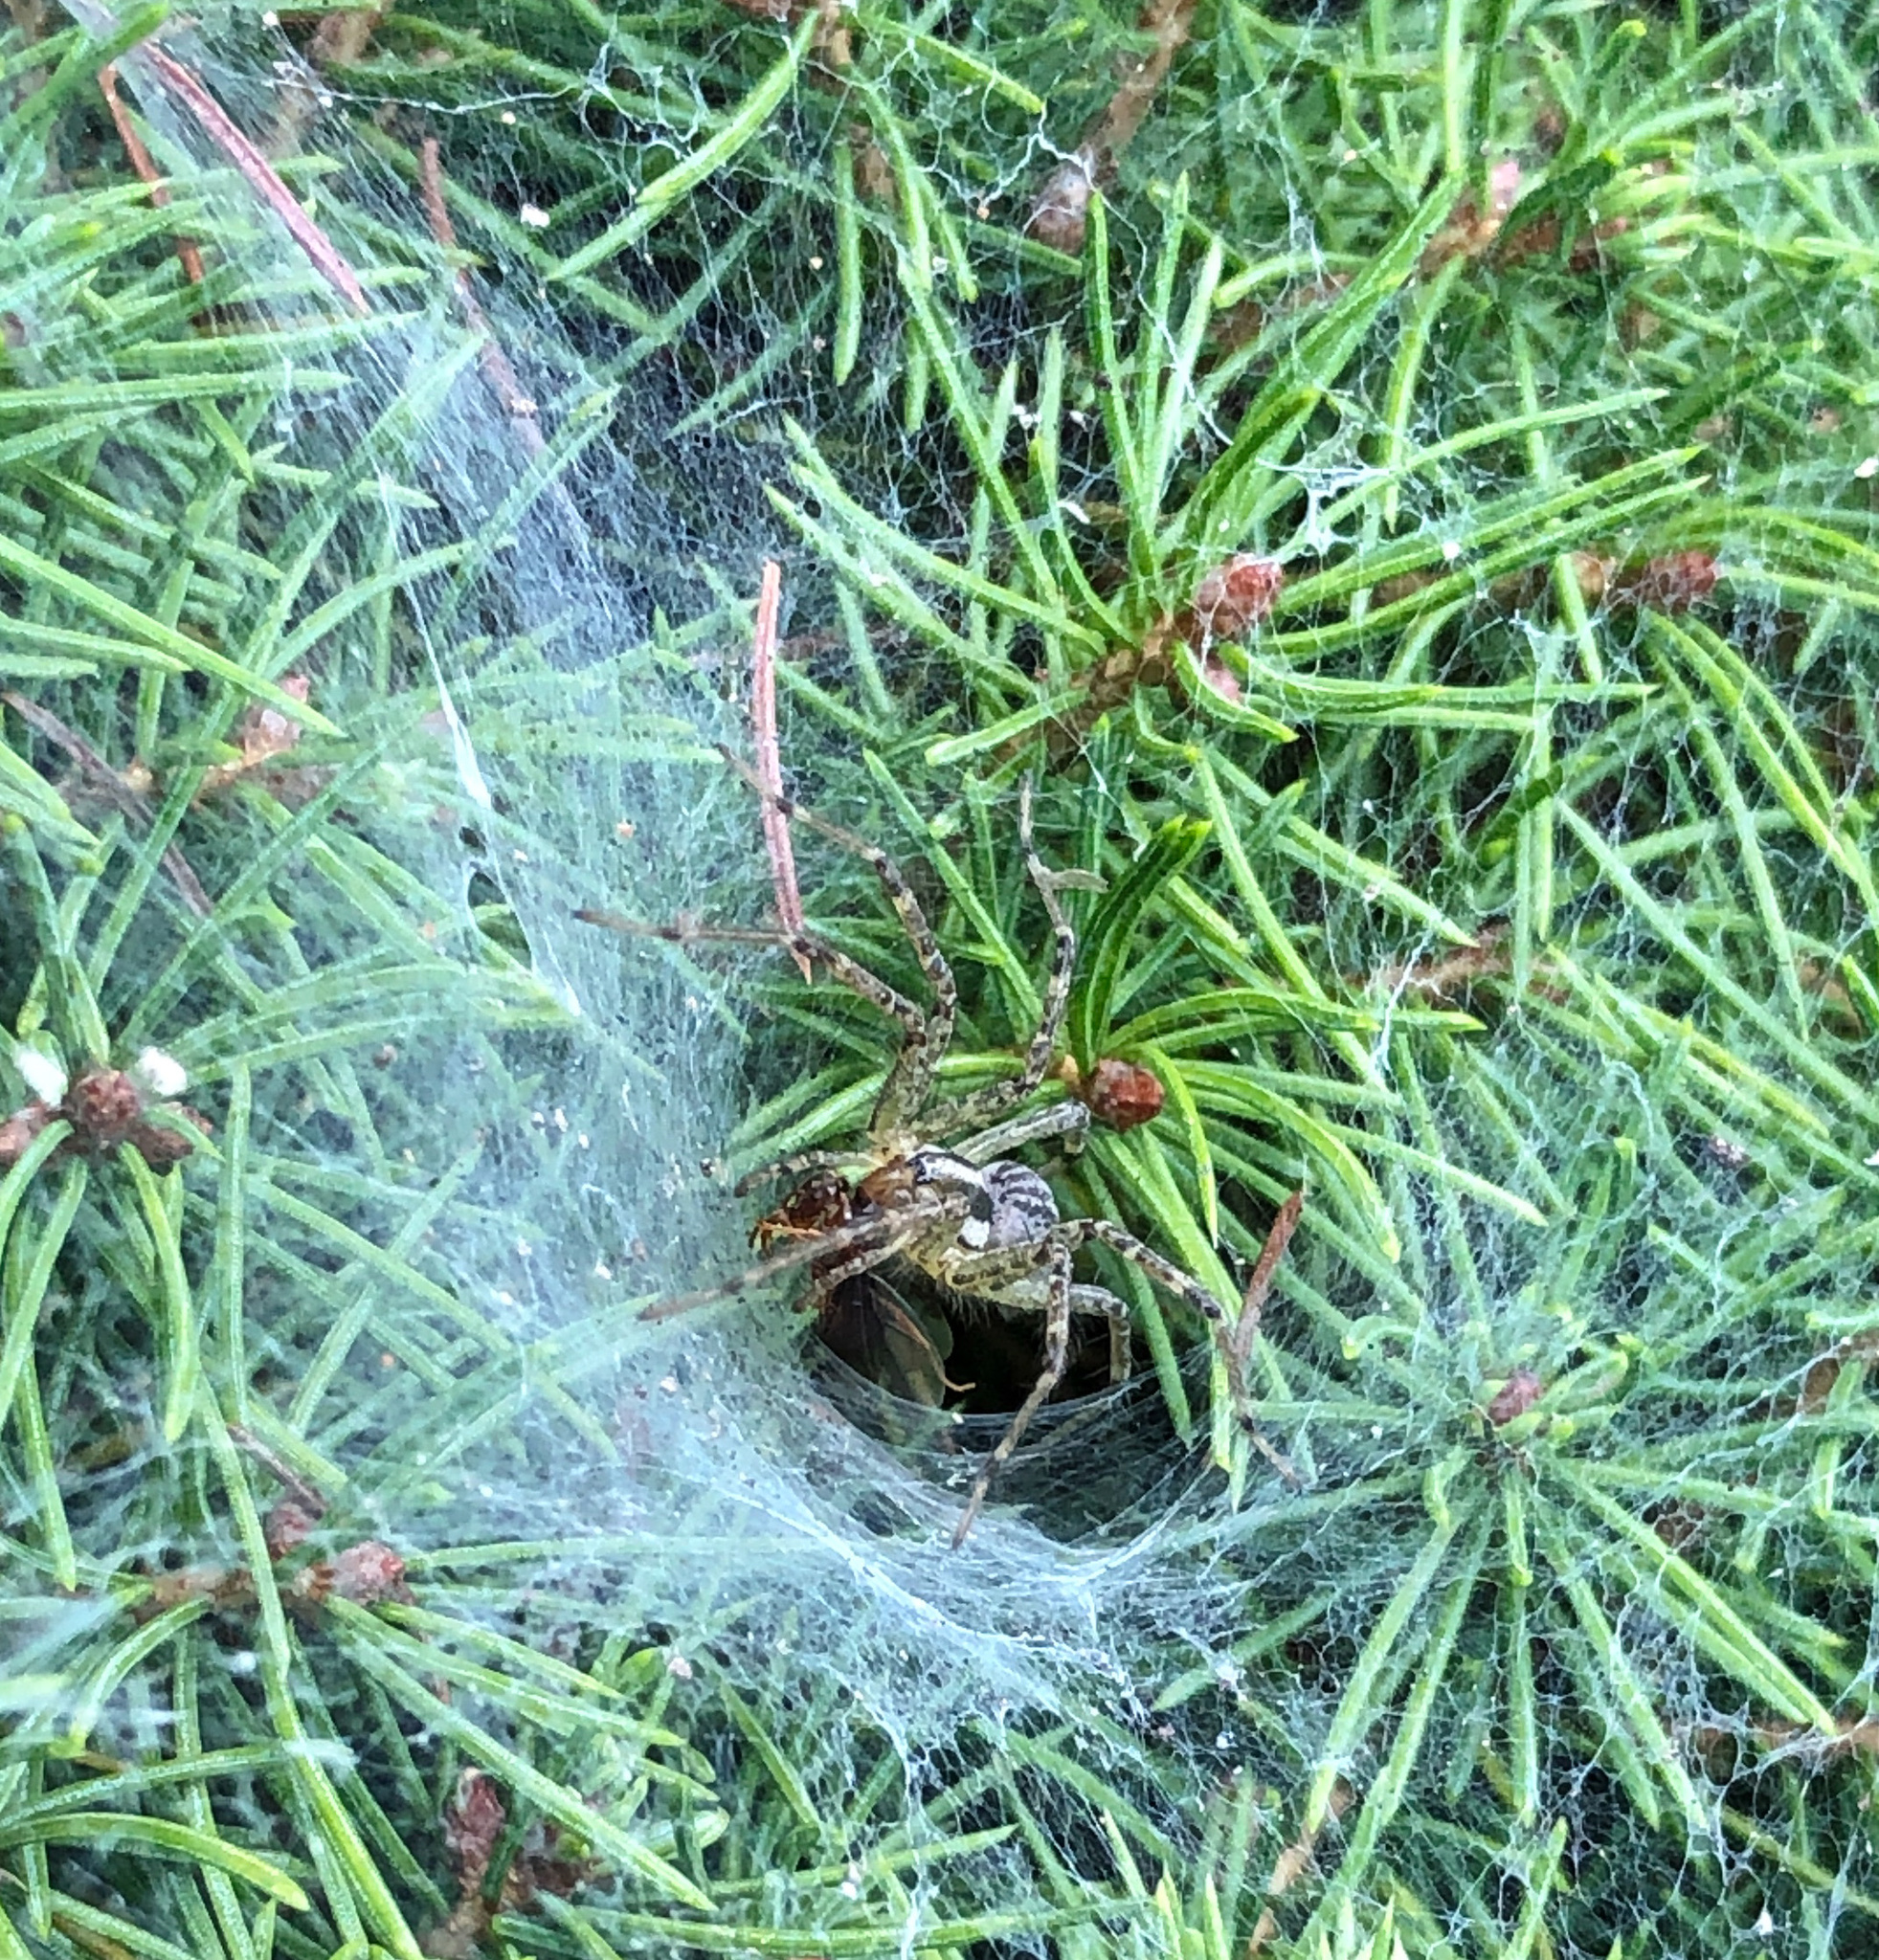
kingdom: Animalia
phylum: Arthropoda
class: Arachnida
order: Araneae
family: Agelenidae
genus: Agelenopsis
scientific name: Agelenopsis
